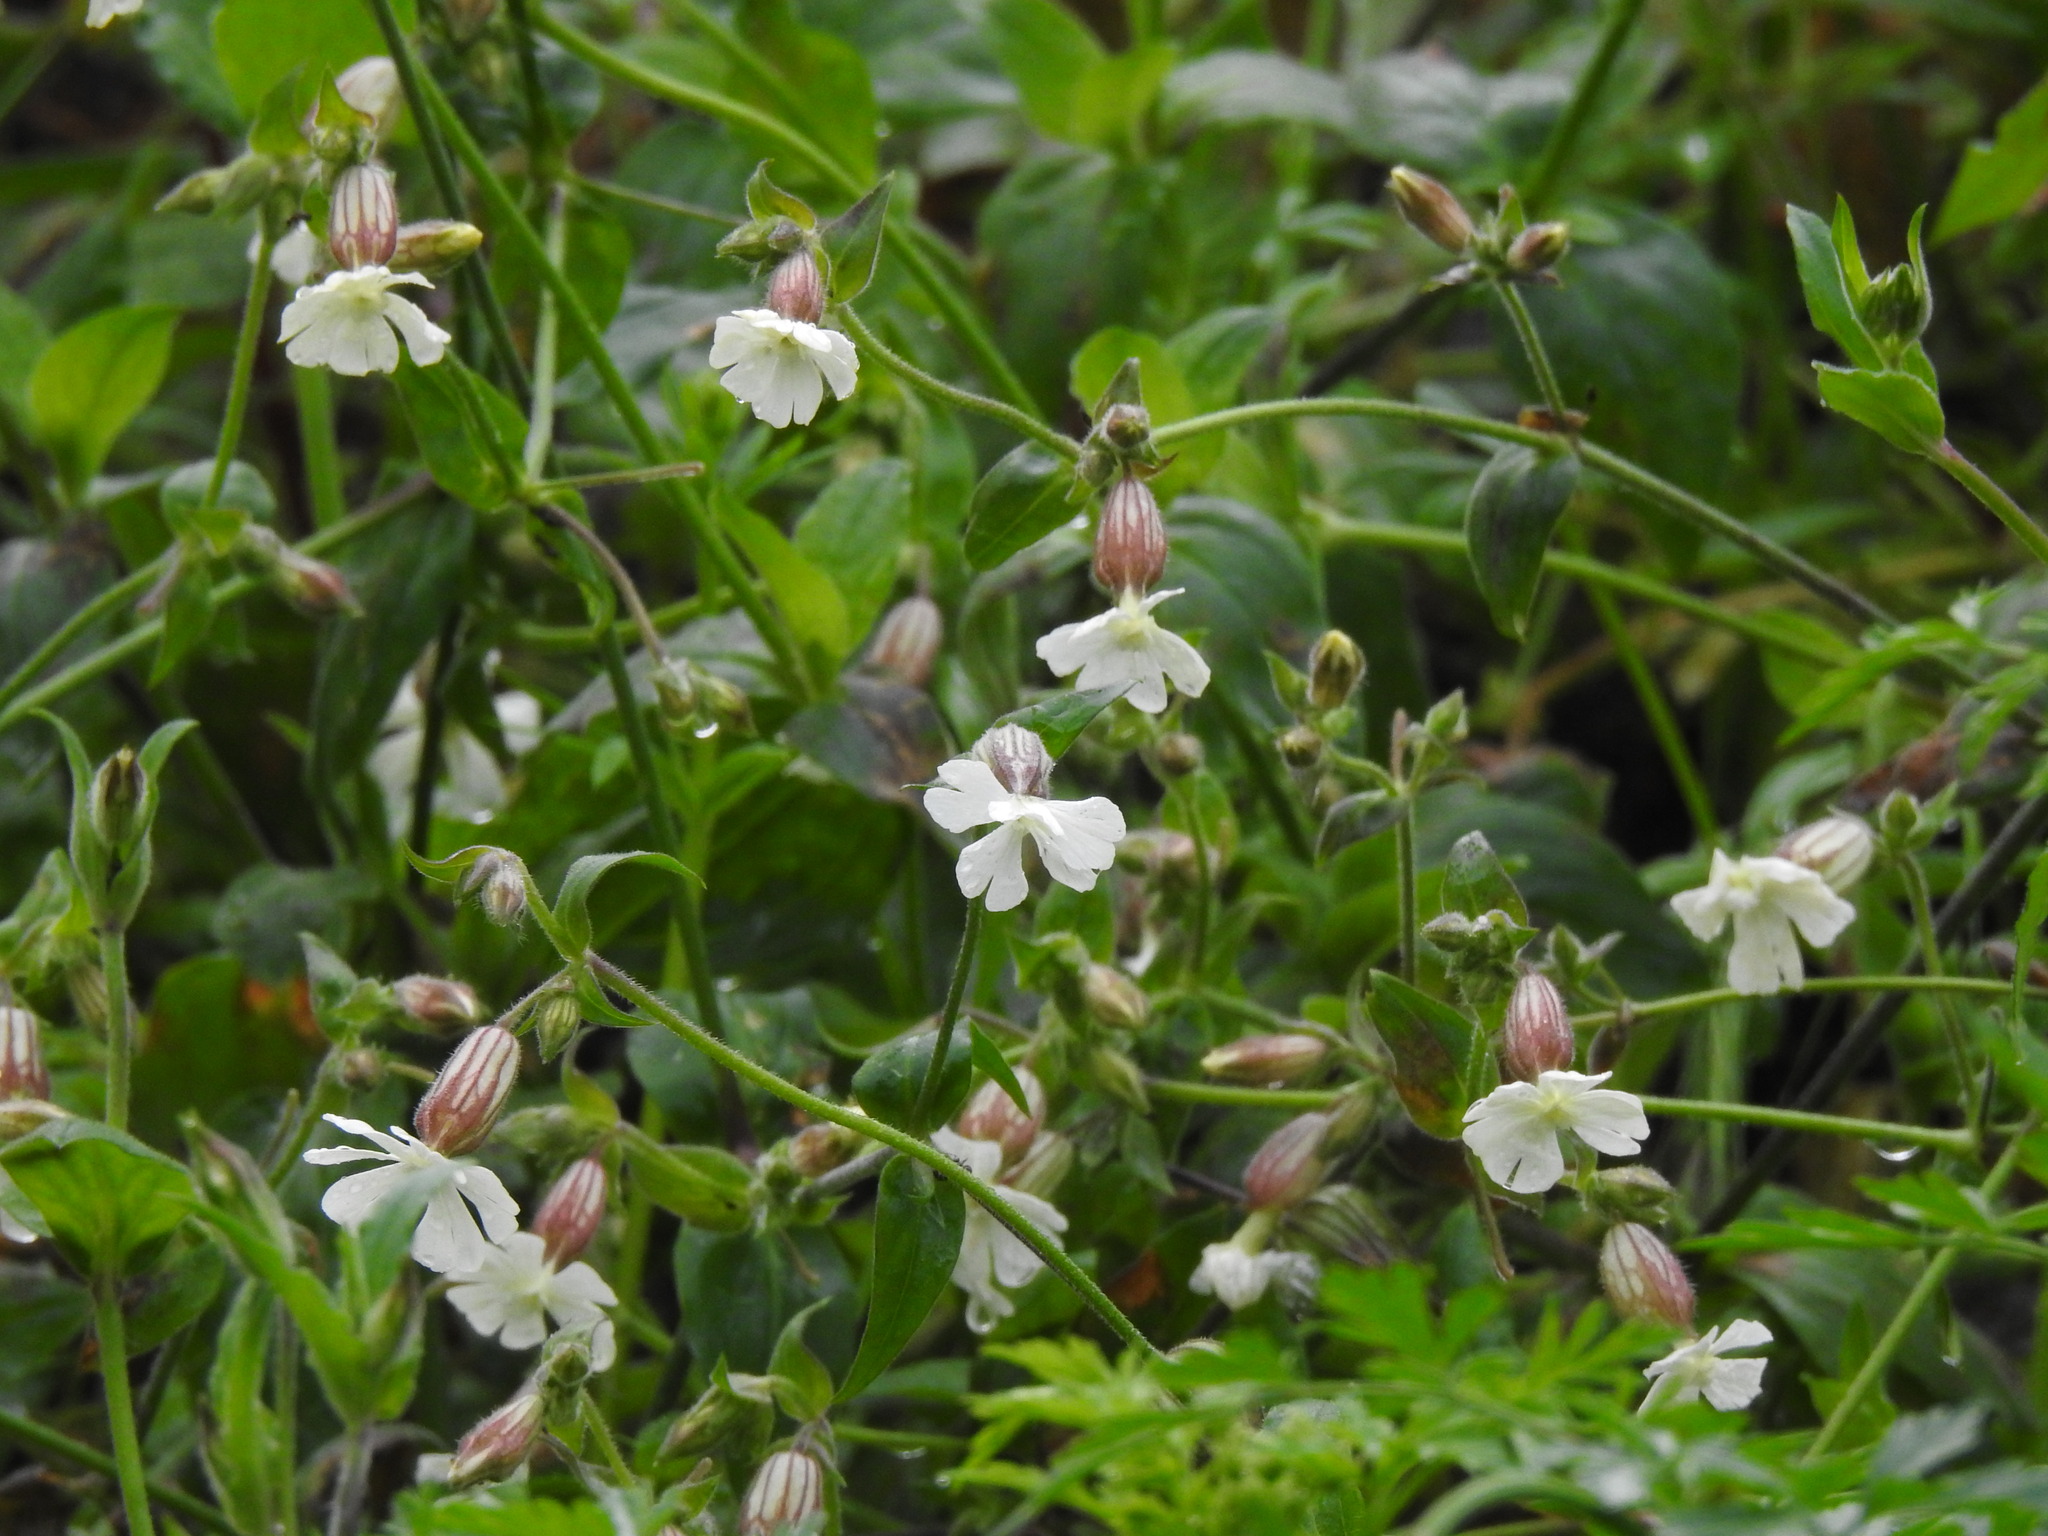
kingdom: Plantae
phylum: Tracheophyta
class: Magnoliopsida
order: Caryophyllales
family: Caryophyllaceae
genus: Silene
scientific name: Silene latifolia
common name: White campion
